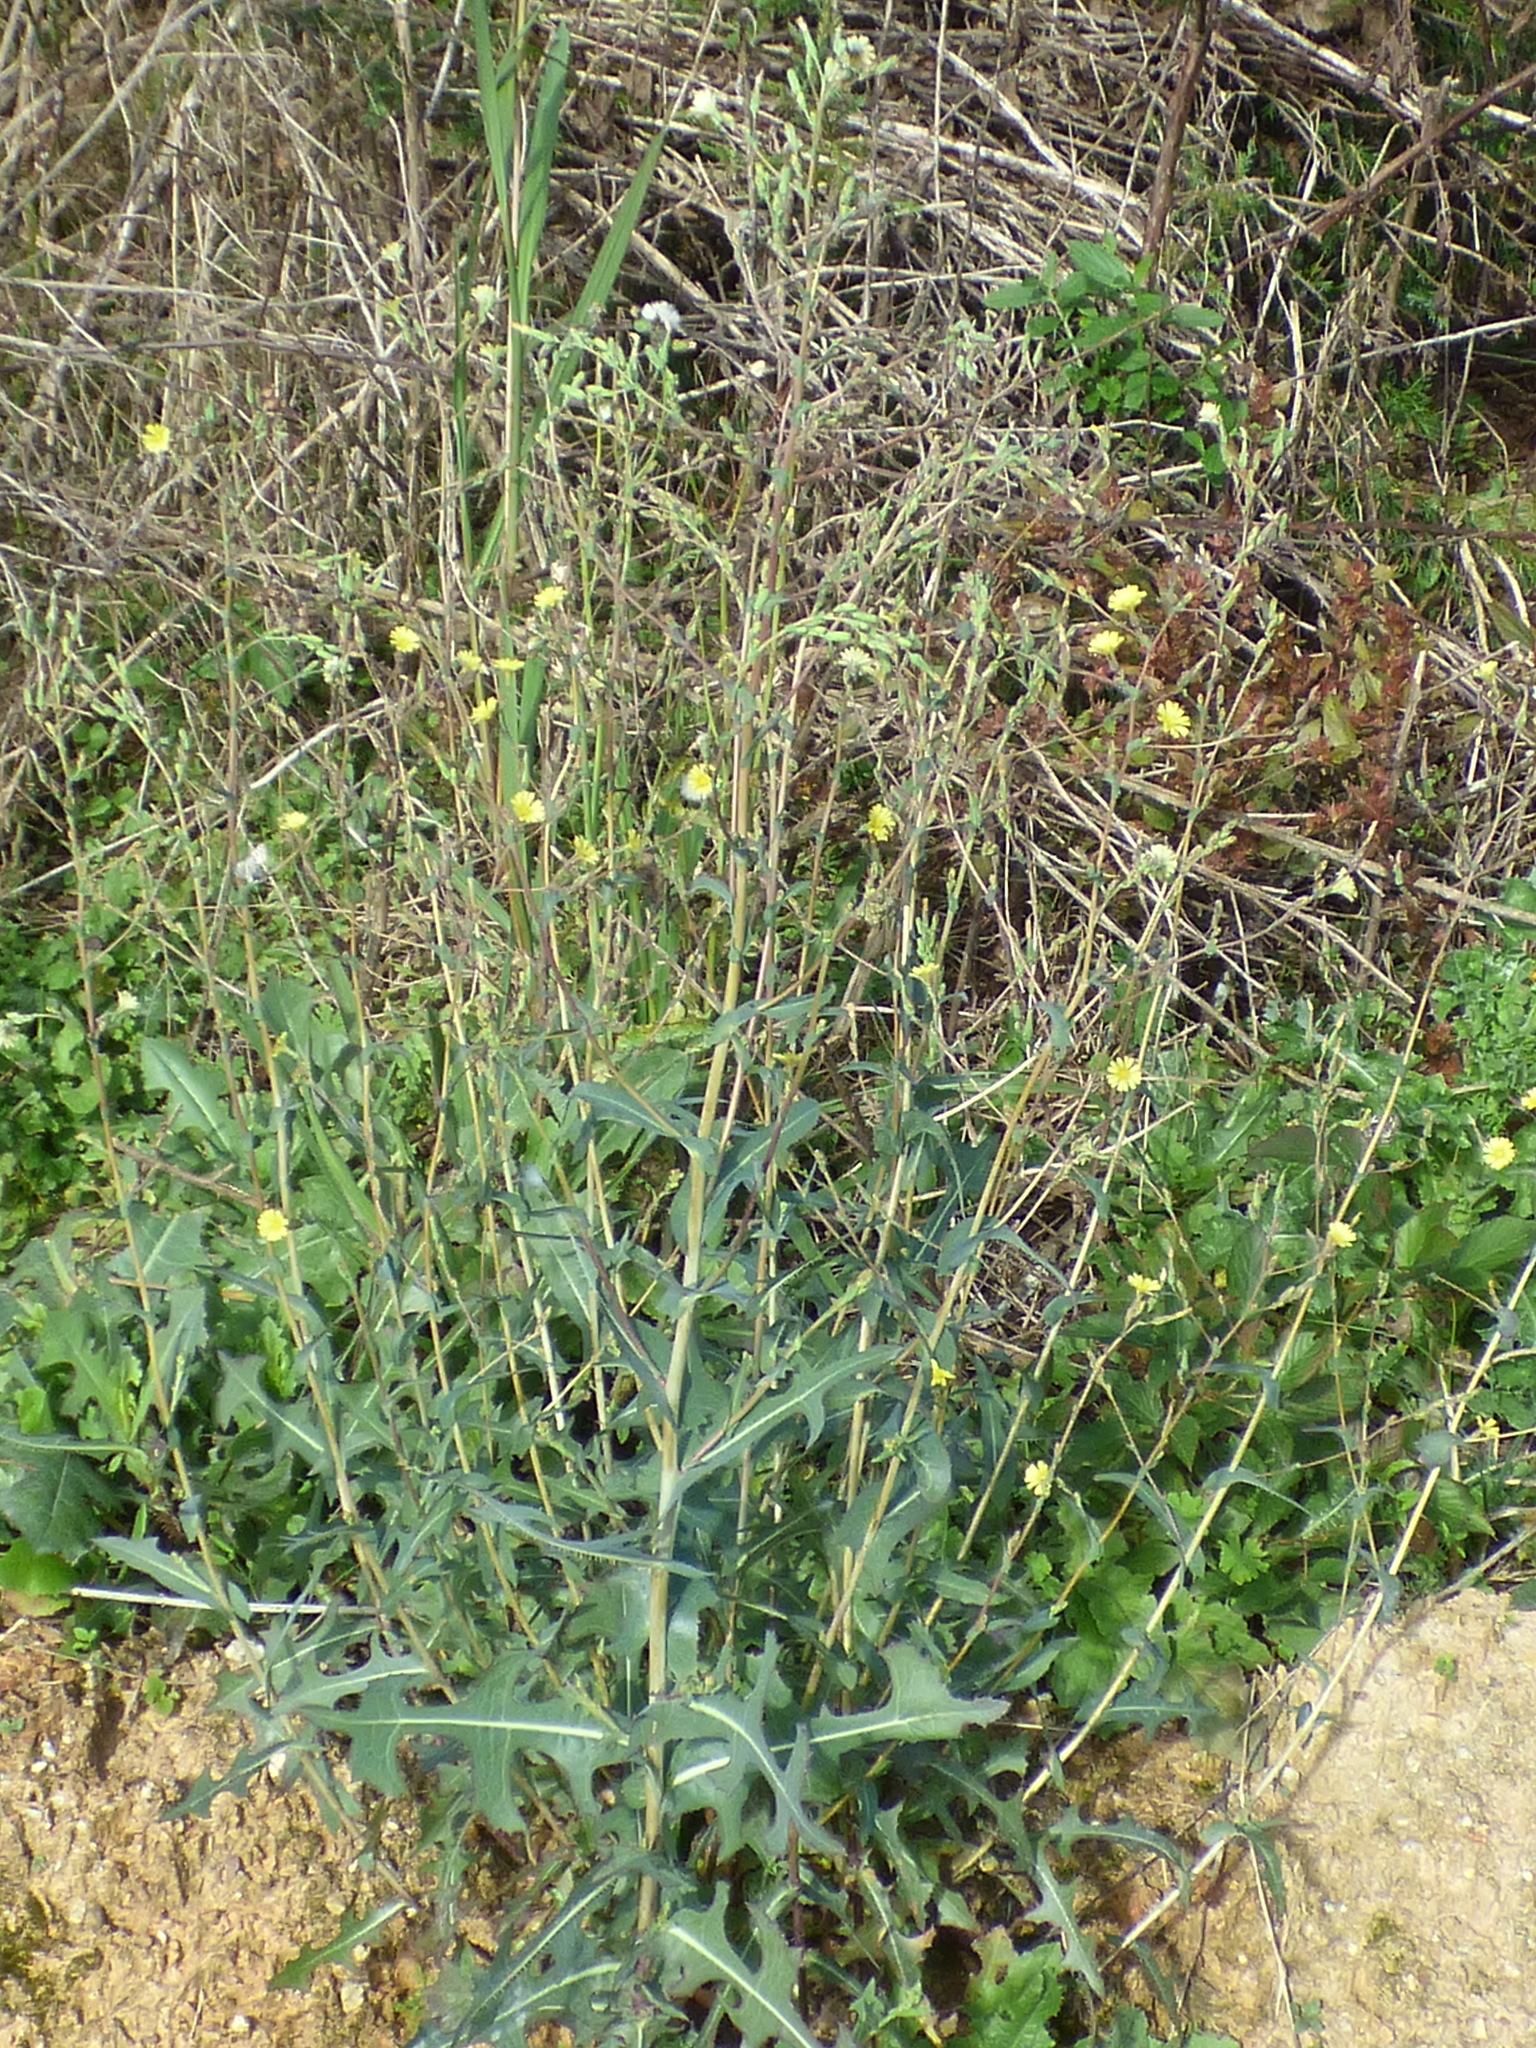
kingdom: Plantae
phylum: Tracheophyta
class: Magnoliopsida
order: Asterales
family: Asteraceae
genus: Lactuca
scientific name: Lactuca serriola
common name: Prickly lettuce
